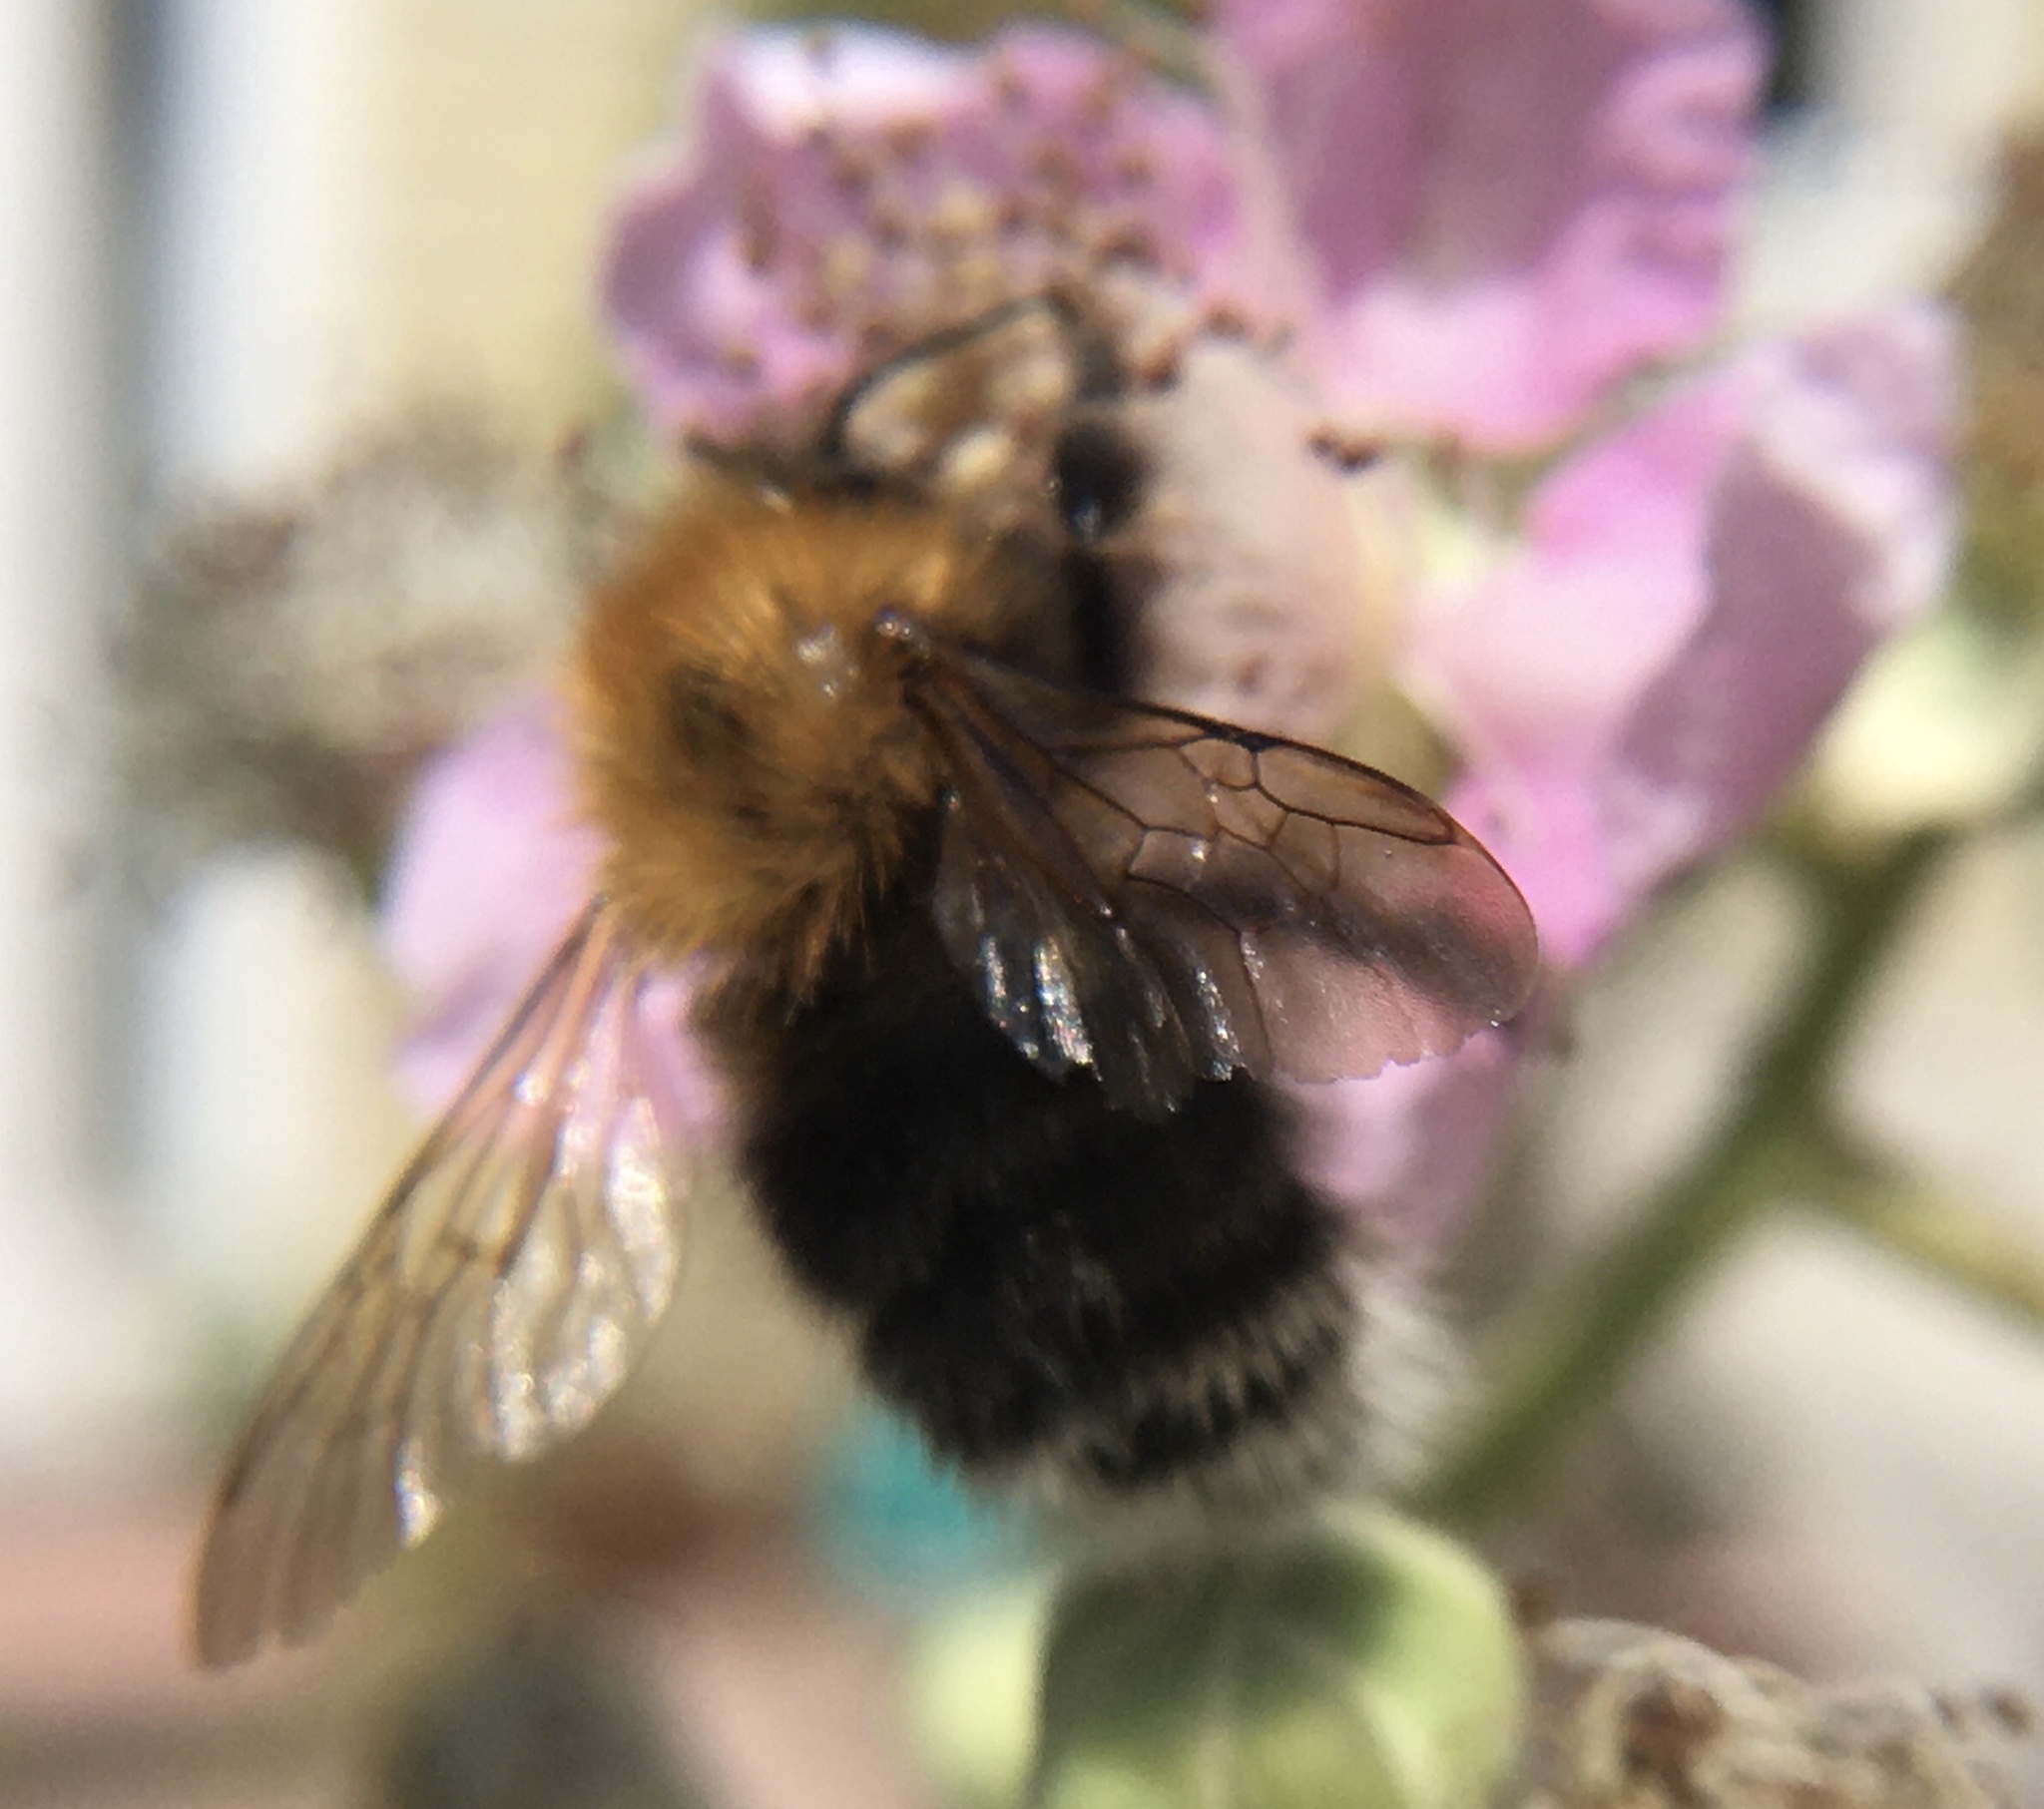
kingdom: Animalia
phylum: Arthropoda
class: Insecta
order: Hymenoptera
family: Apidae
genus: Bombus
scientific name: Bombus hypnorum
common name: New garden bumblebee
